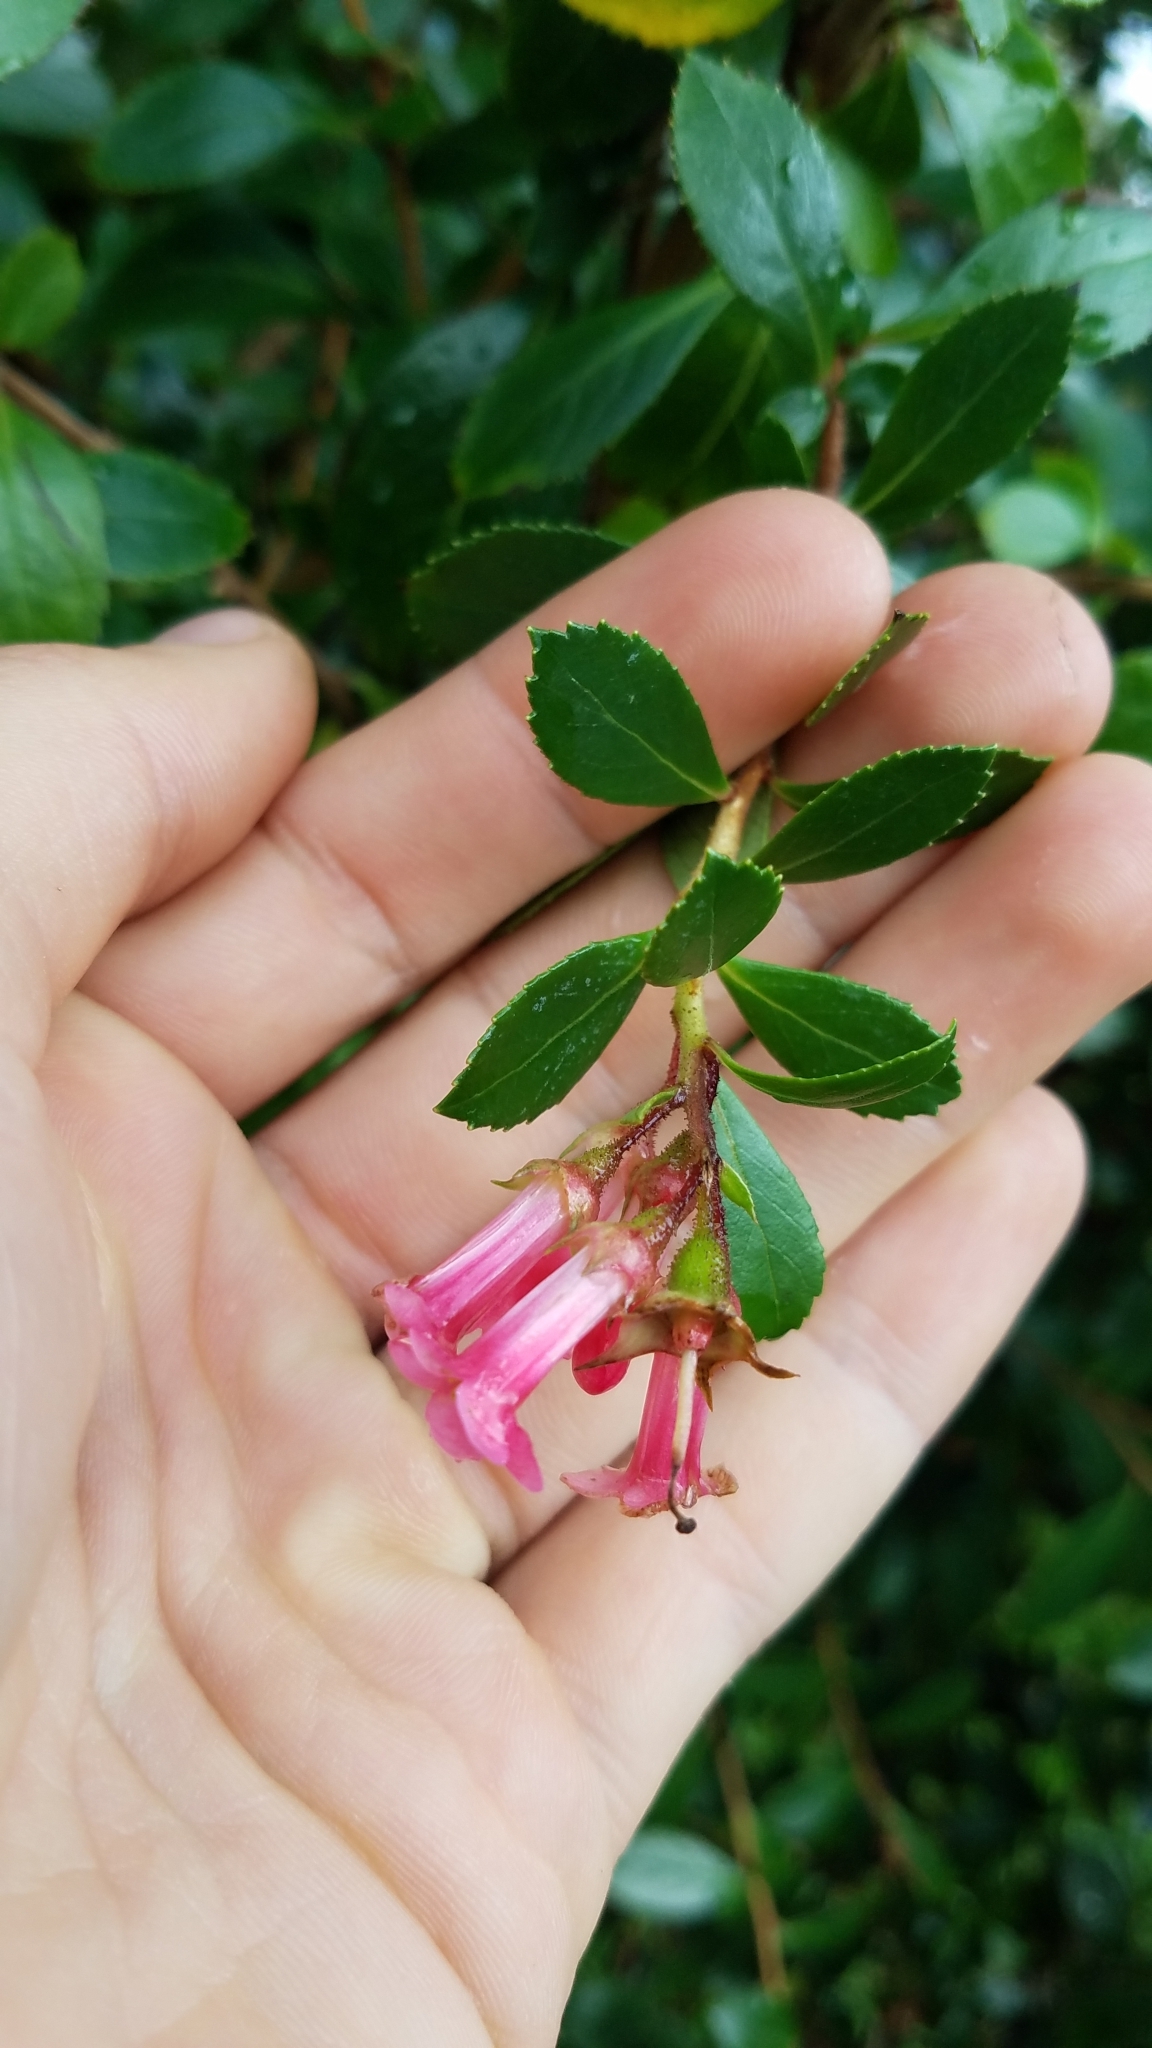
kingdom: Plantae
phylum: Tracheophyta
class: Magnoliopsida
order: Escalloniales
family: Escalloniaceae
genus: Escallonia
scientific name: Escallonia rubra
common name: Redclaws
